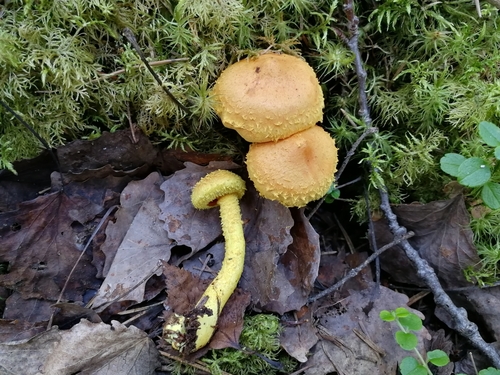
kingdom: Fungi
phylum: Basidiomycota
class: Agaricomycetes
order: Agaricales
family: Strophariaceae
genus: Pholiota
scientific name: Pholiota flammans
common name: Flaming scalycap
